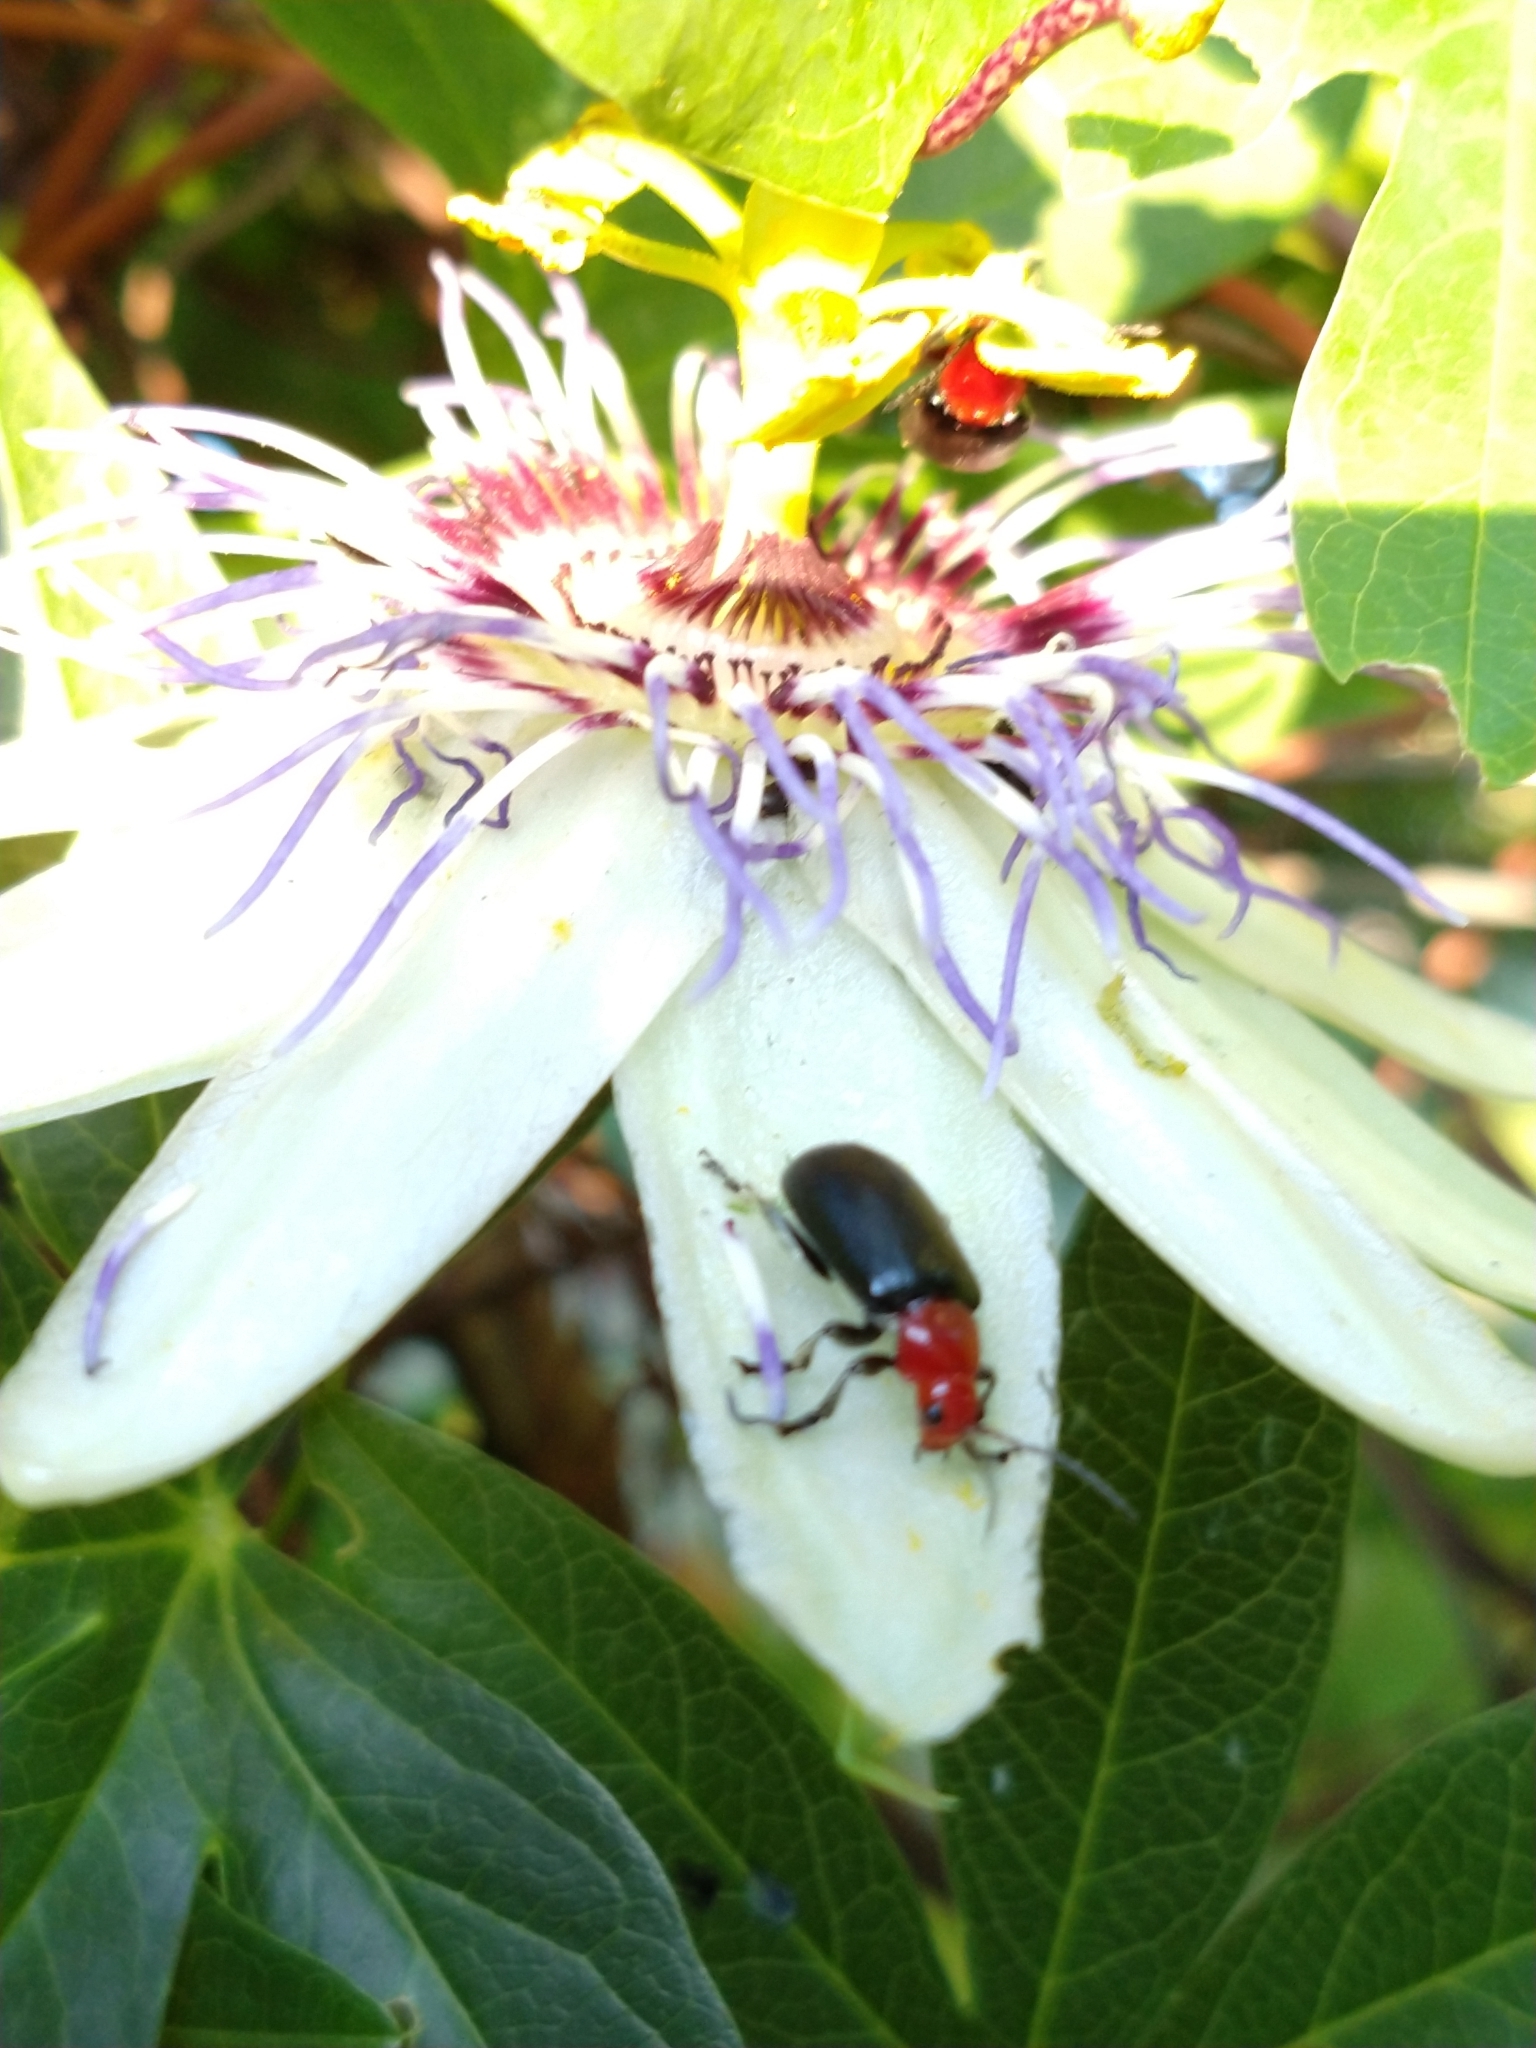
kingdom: Animalia
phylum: Arthropoda
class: Insecta
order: Coleoptera
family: Chrysomelidae
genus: Cacoscelis
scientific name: Cacoscelis
